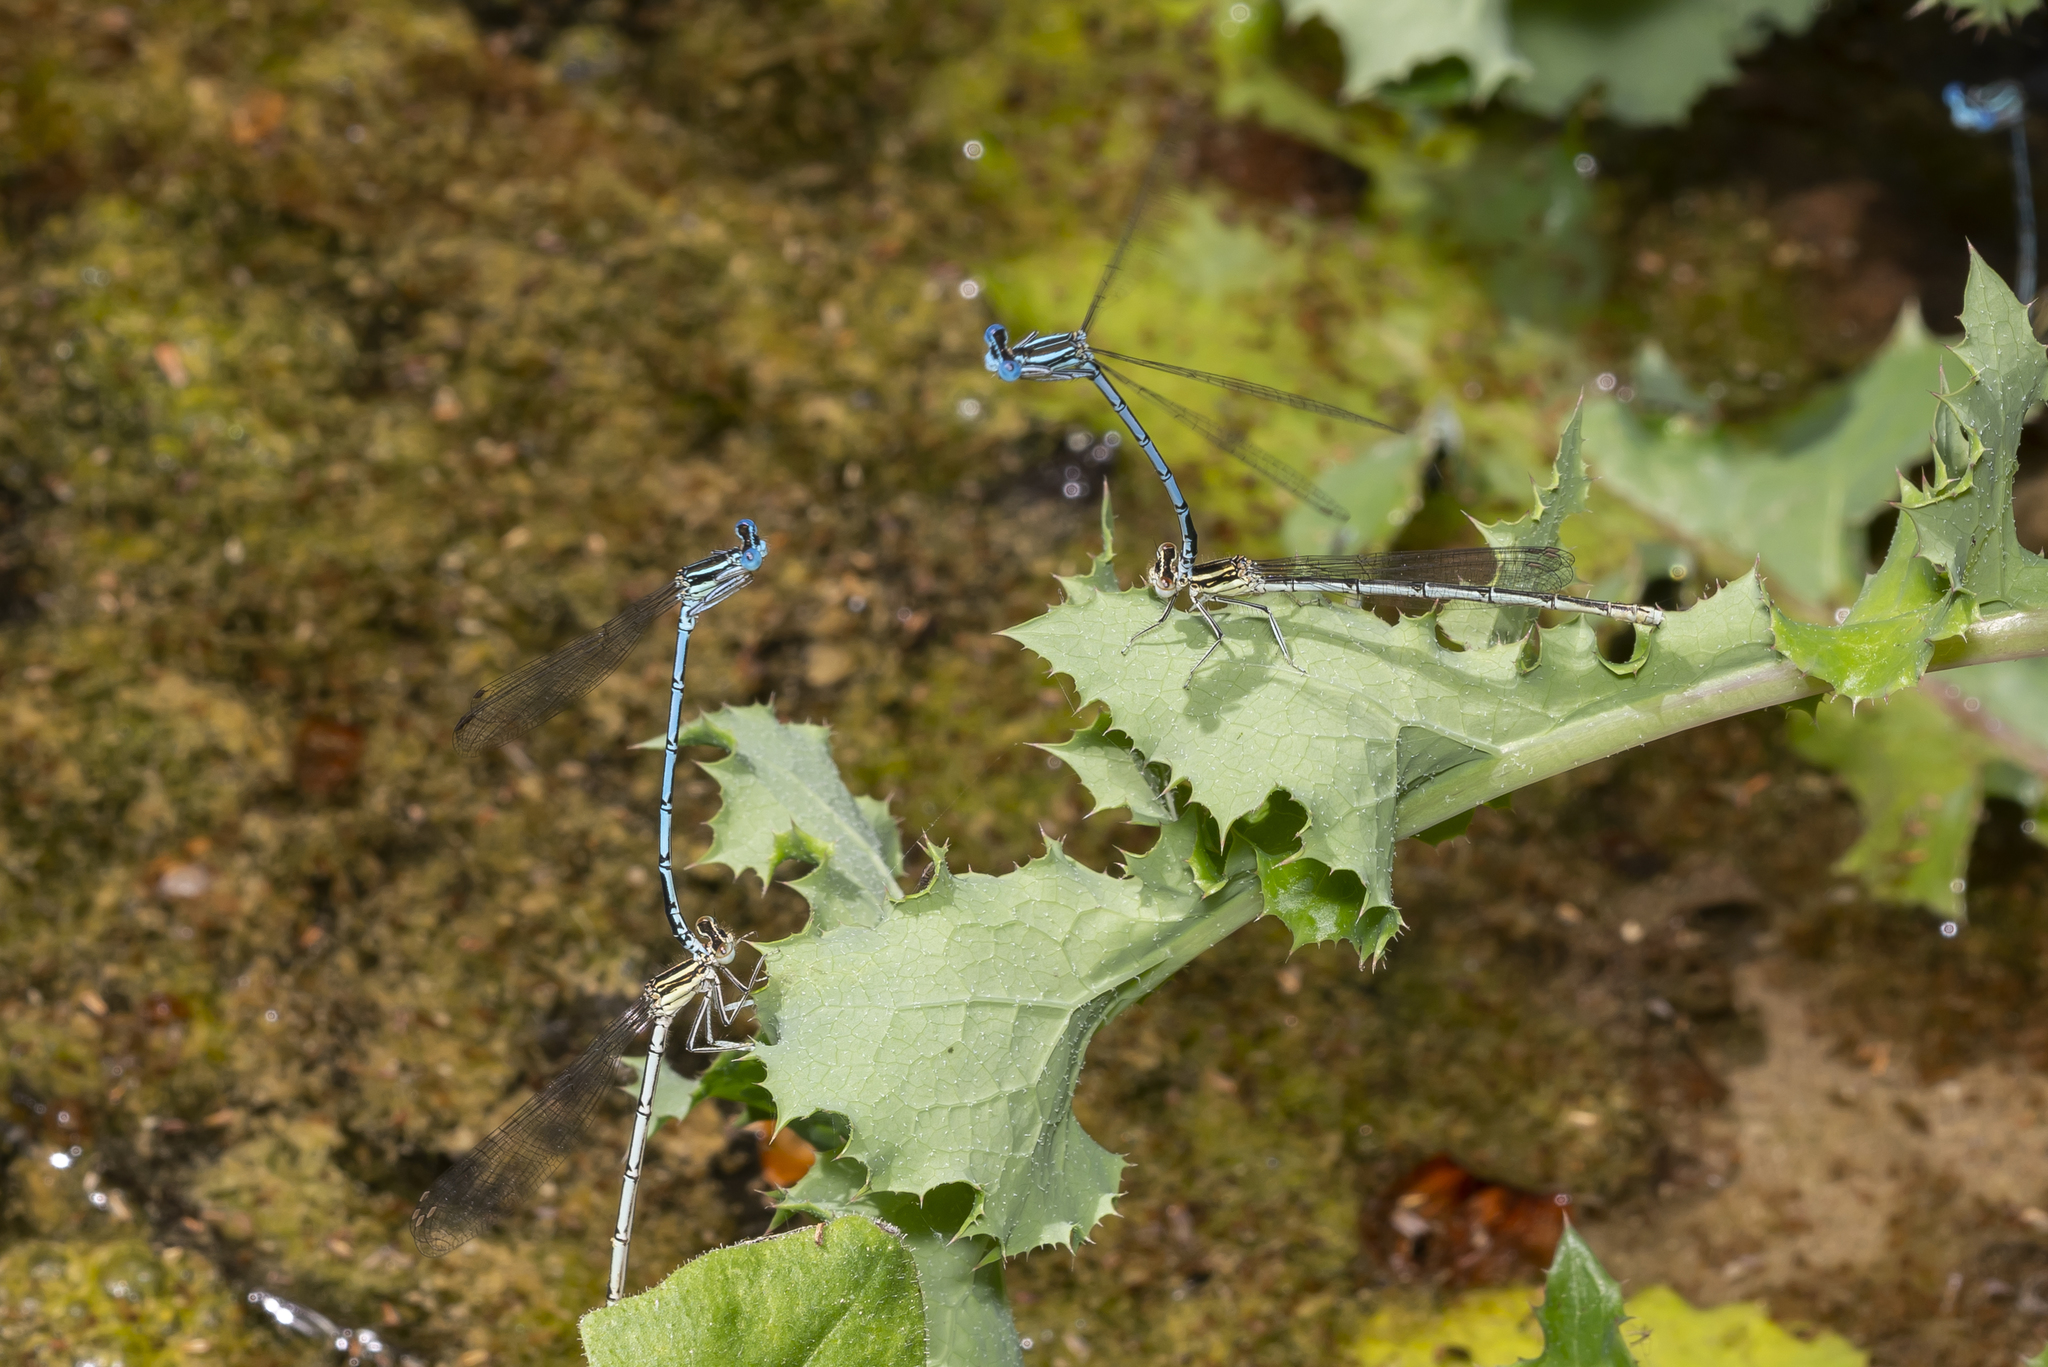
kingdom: Animalia
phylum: Arthropoda
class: Insecta
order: Odonata
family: Platycnemididae
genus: Platycnemis
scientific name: Platycnemis pennipes
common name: White-legged damselfly
